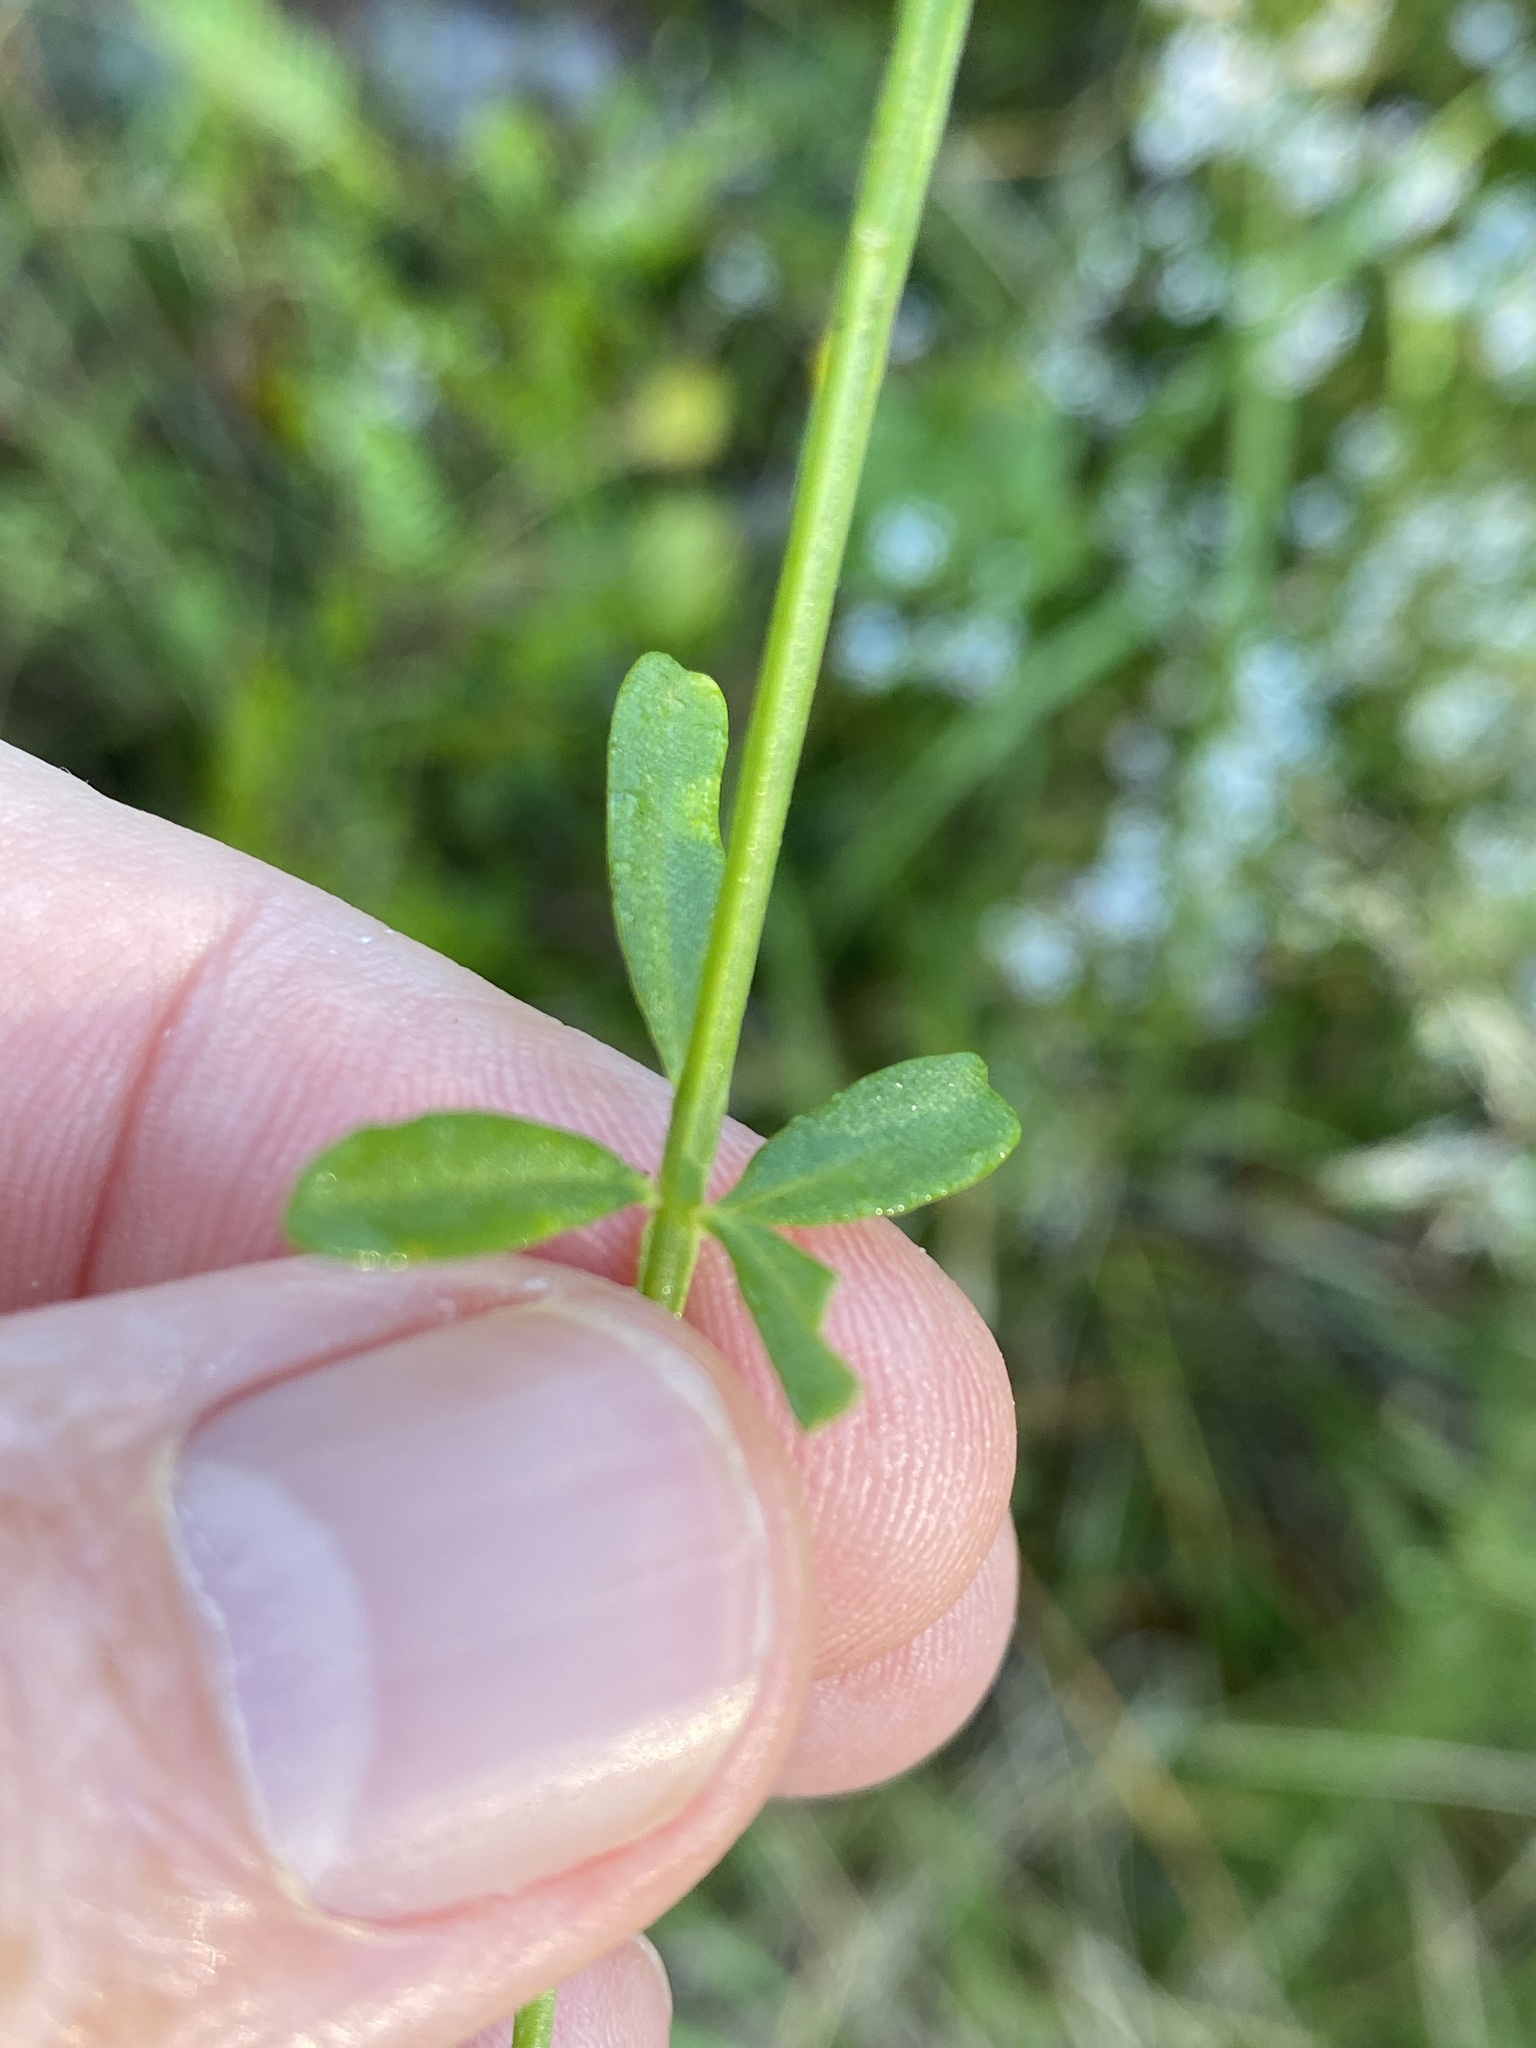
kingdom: Plantae
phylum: Tracheophyta
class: Magnoliopsida
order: Fabales
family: Polygalaceae
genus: Polygala
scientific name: Polygala brevifolia
